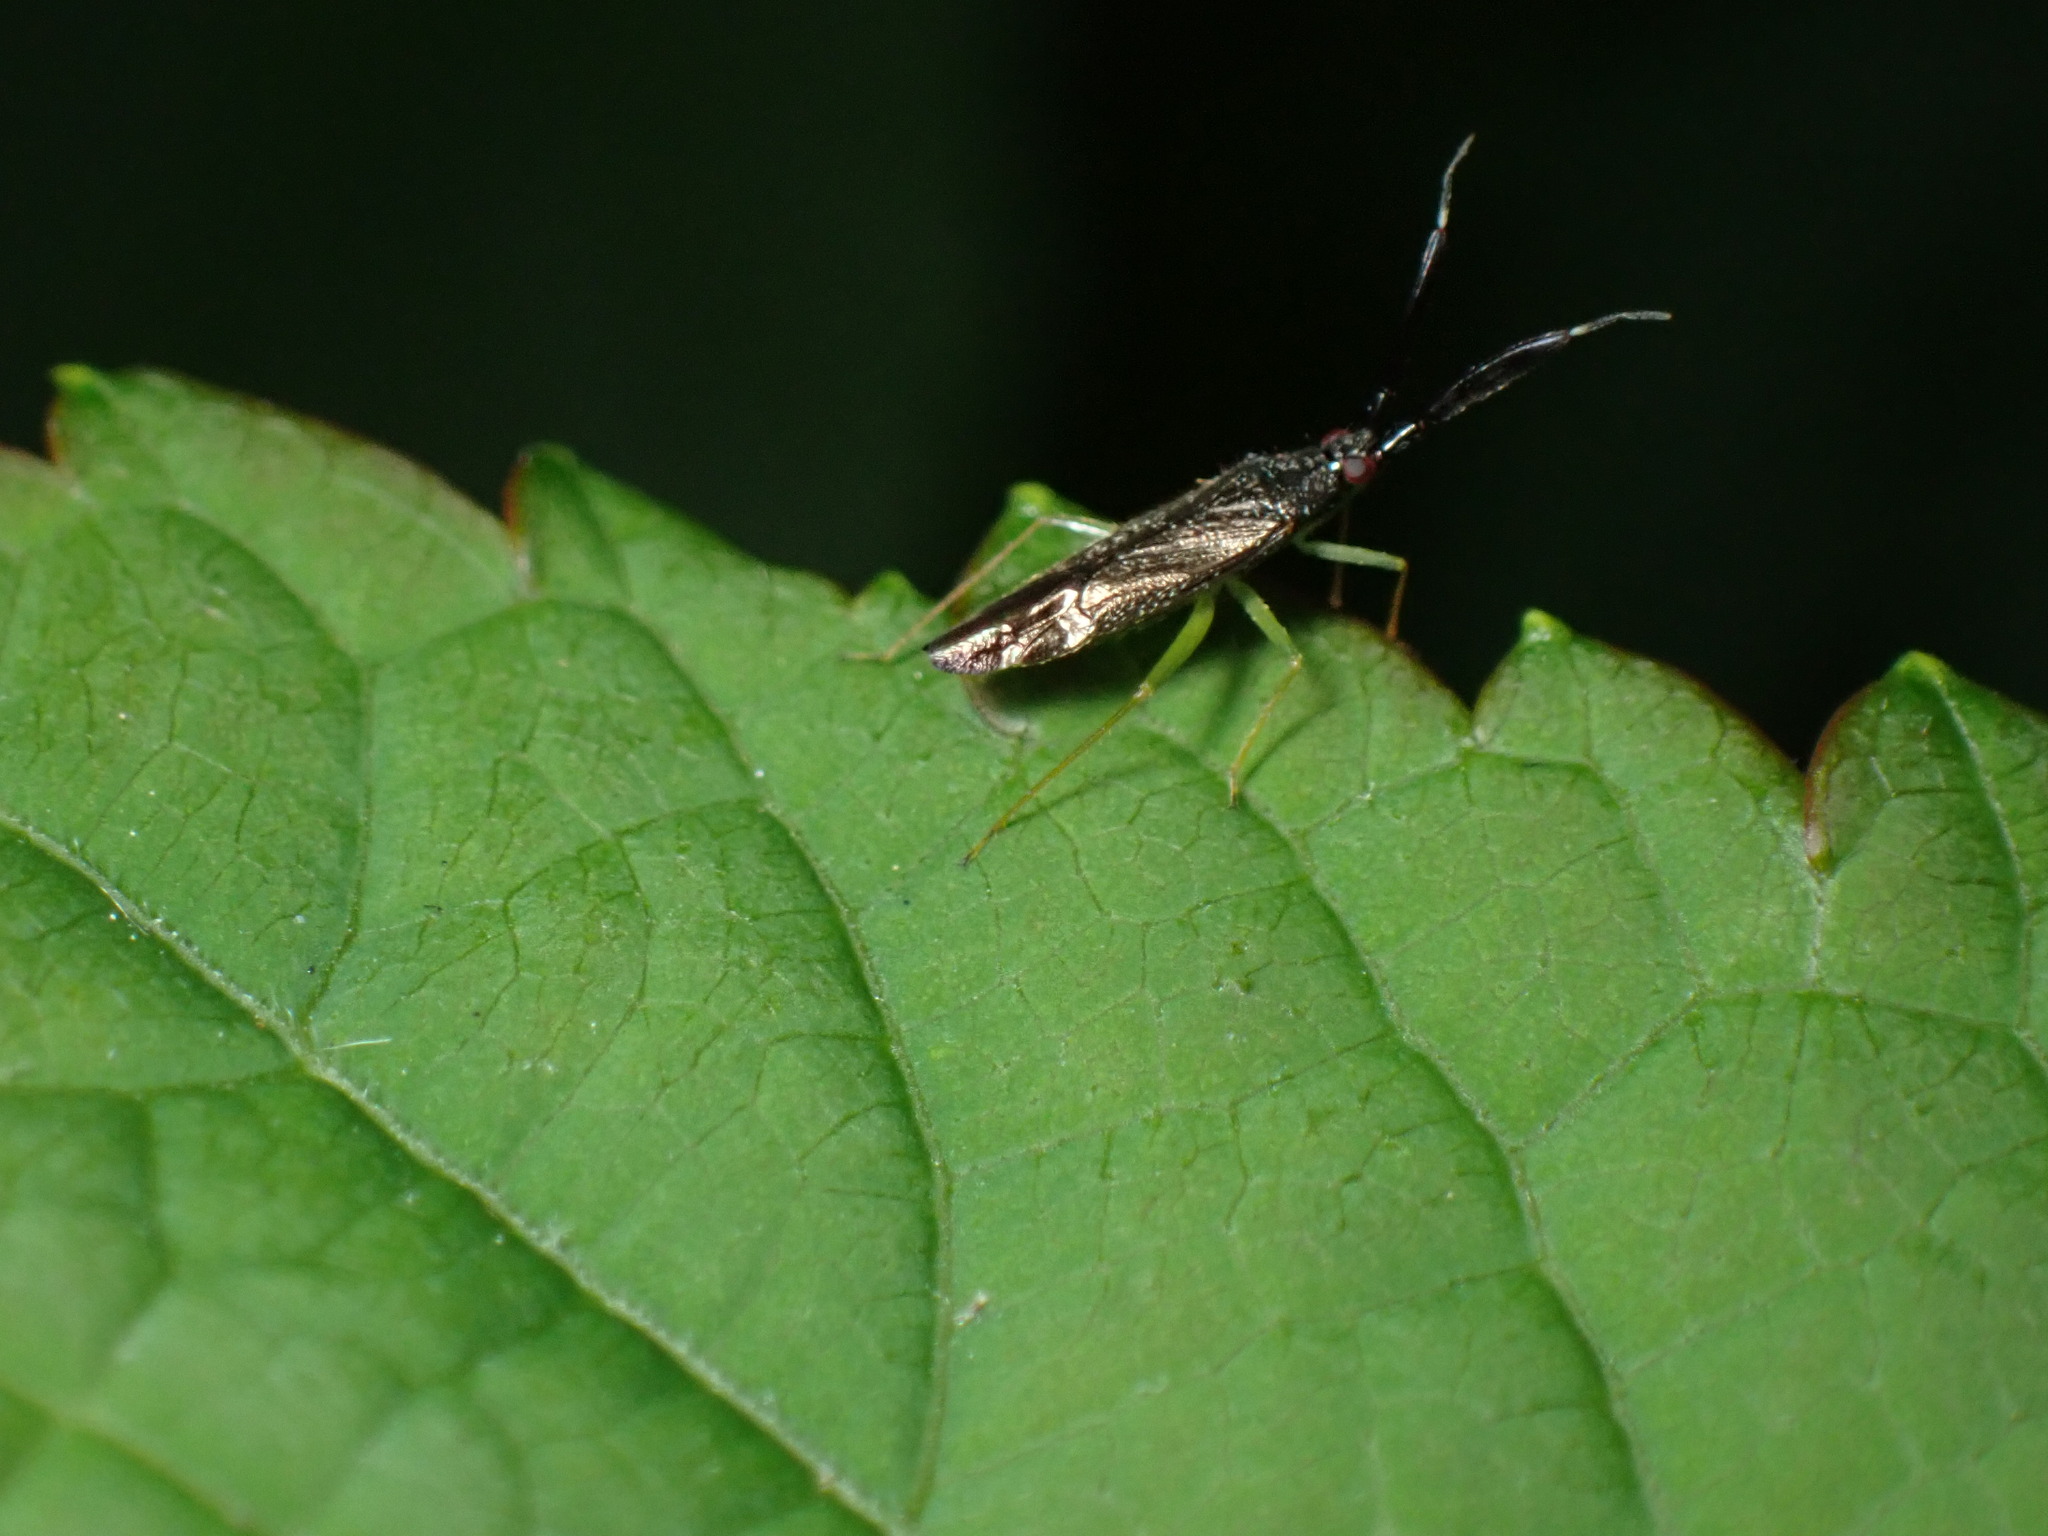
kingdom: Animalia
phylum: Arthropoda
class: Insecta
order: Hemiptera
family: Miridae
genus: Heterotoma
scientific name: Heterotoma planicornis
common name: Plant bug
